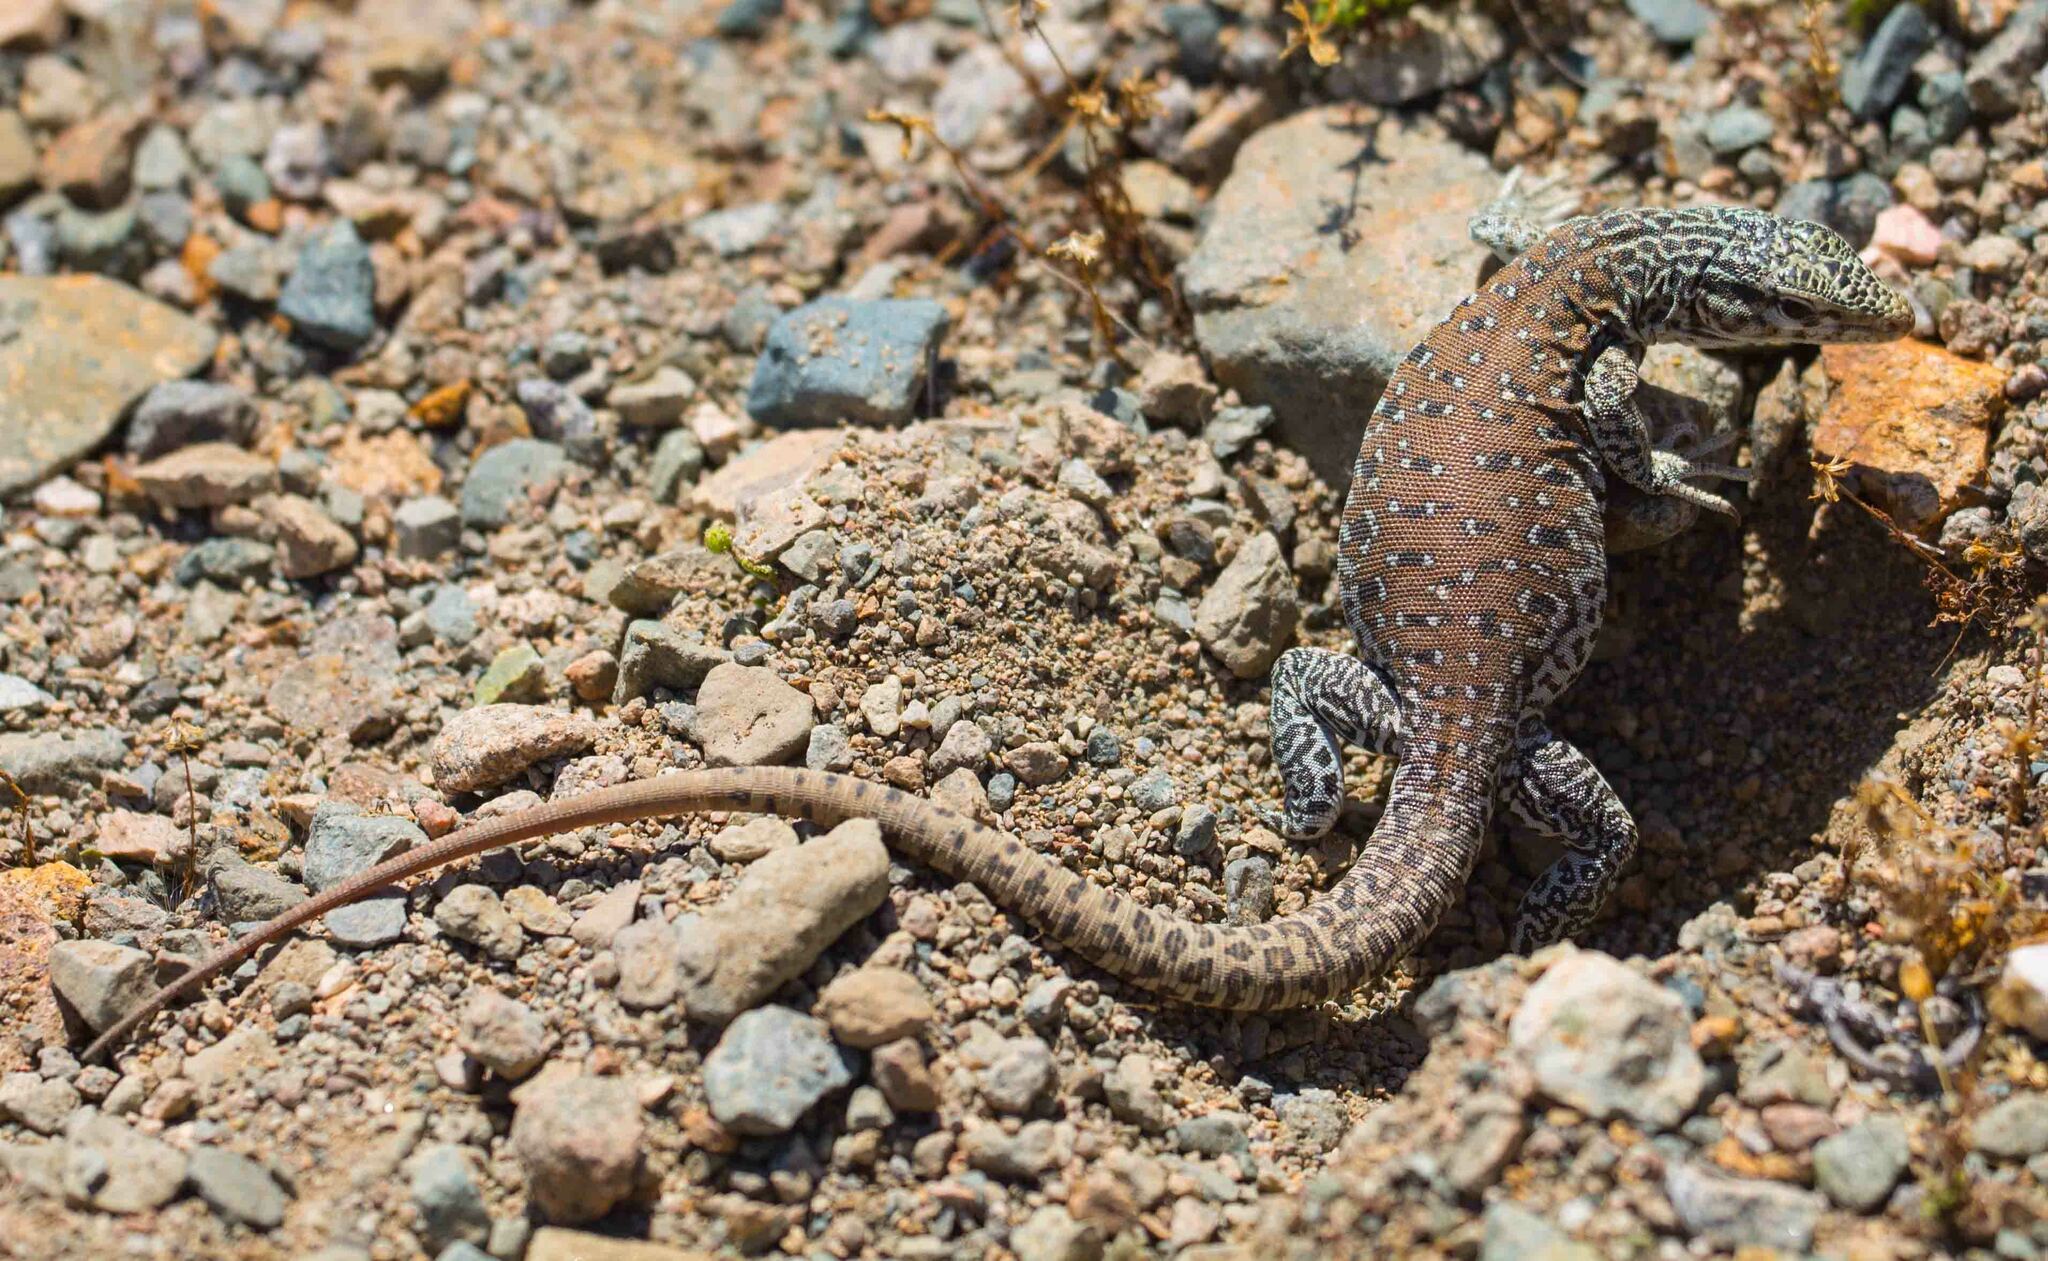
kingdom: Animalia
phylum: Chordata
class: Squamata
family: Teiidae
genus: Callopistes
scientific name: Callopistes maculatus
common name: Spotted false monitor
